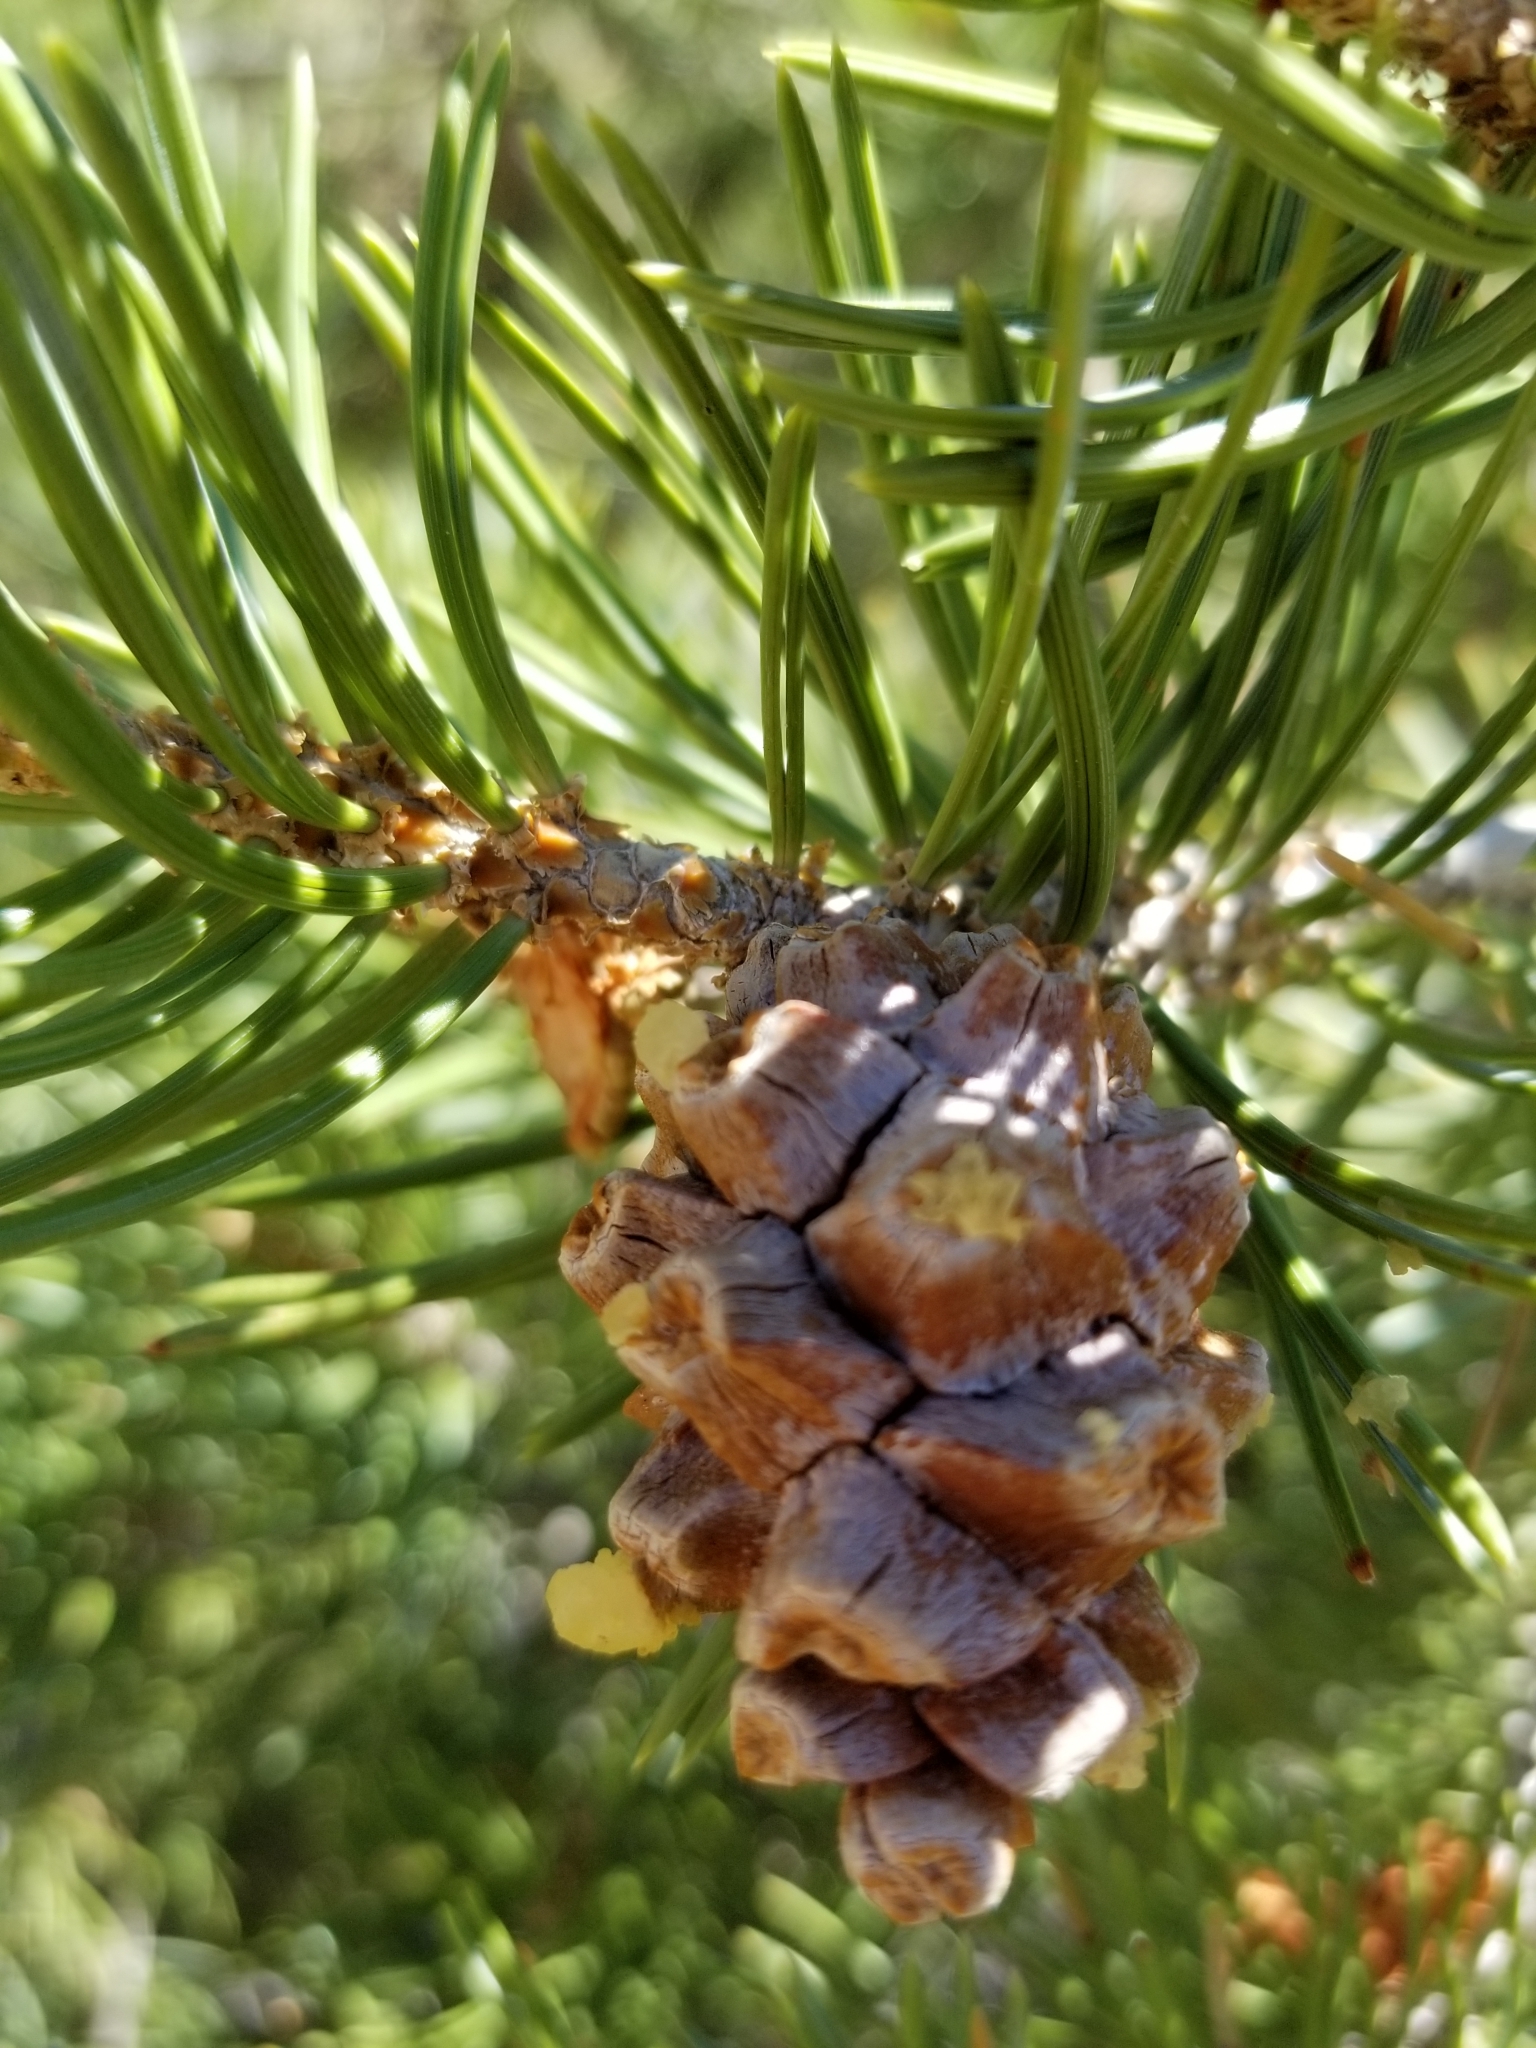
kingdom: Plantae
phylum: Tracheophyta
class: Pinopsida
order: Pinales
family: Pinaceae
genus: Pinus
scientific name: Pinus edulis
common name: Colorado pinyon
